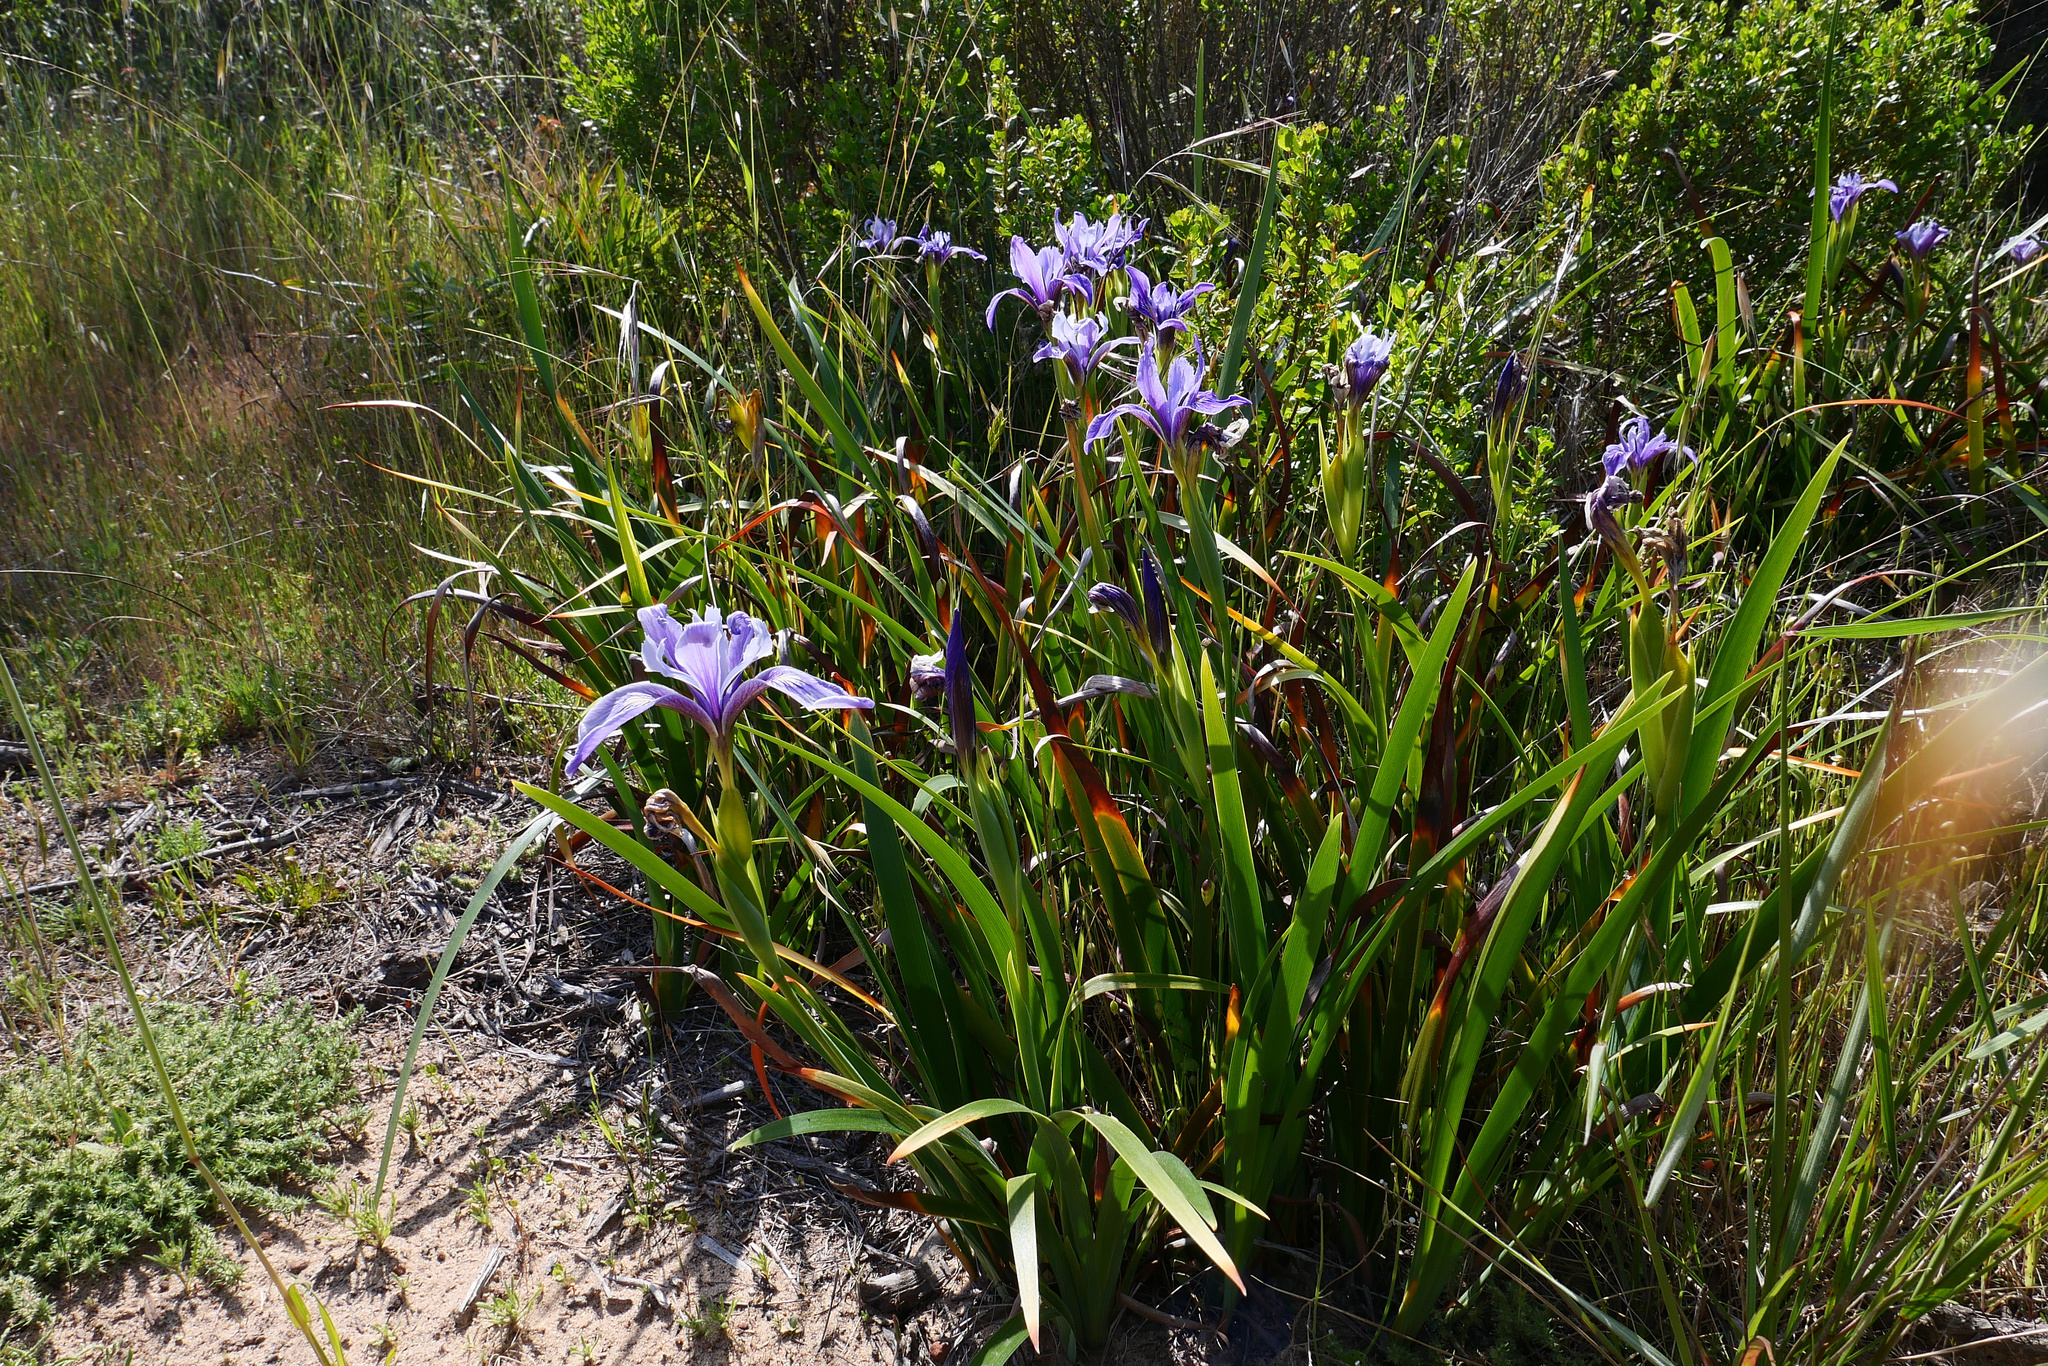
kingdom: Plantae
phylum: Tracheophyta
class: Liliopsida
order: Asparagales
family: Iridaceae
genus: Iris
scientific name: Iris douglasiana
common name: Marin iris
